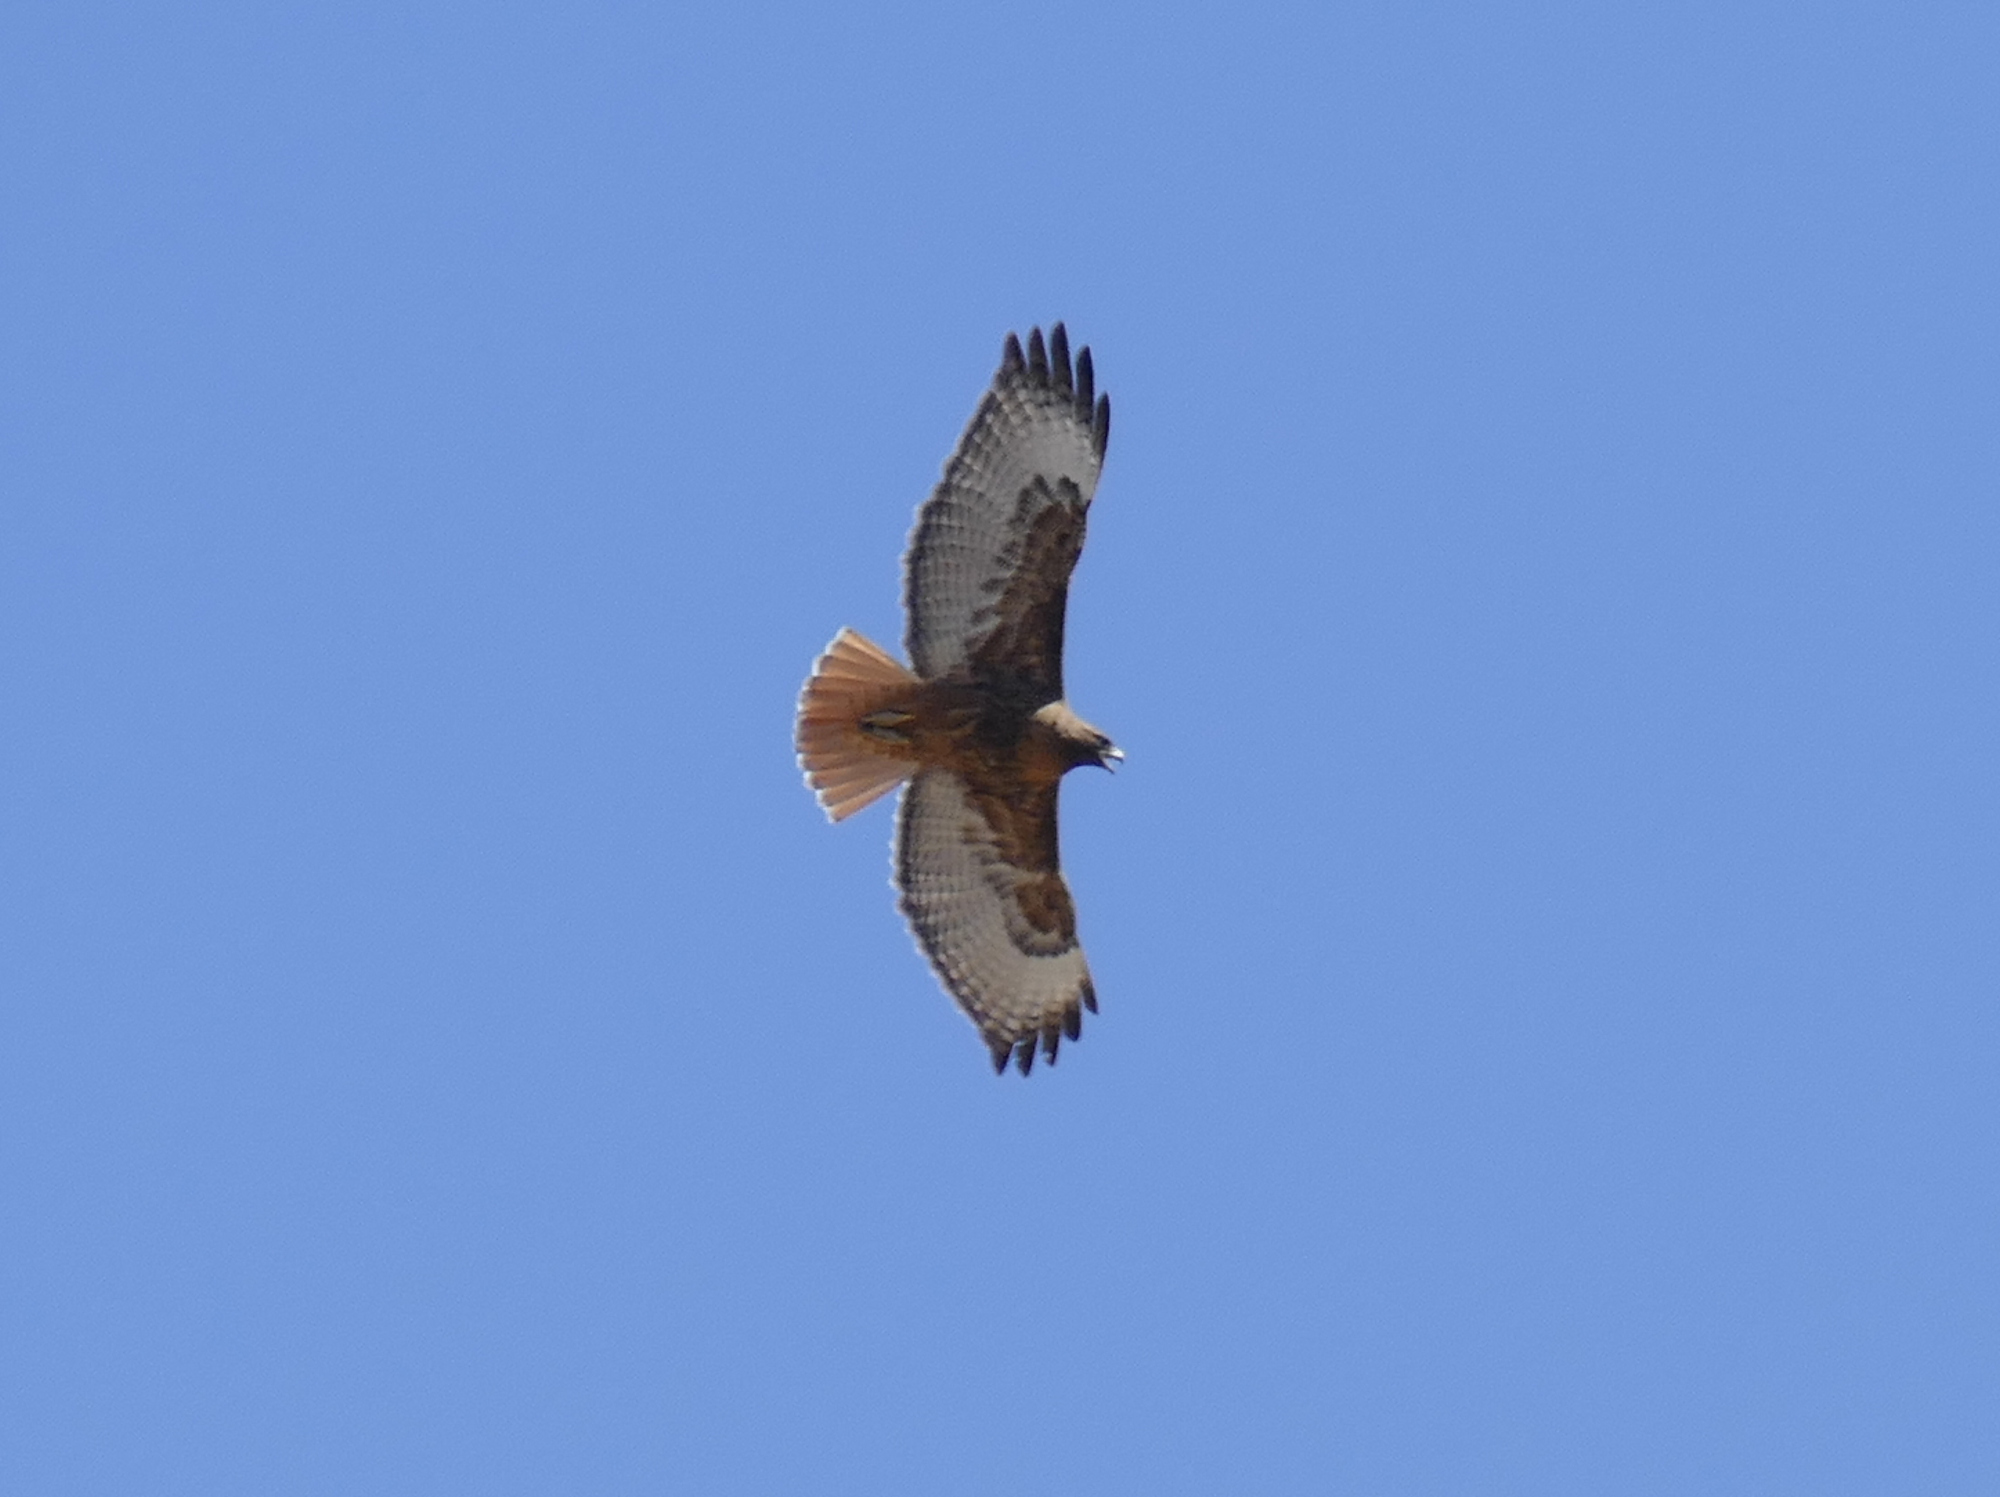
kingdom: Animalia
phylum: Chordata
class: Aves
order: Accipitriformes
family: Accipitridae
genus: Buteo
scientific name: Buteo jamaicensis
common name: Red-tailed hawk
